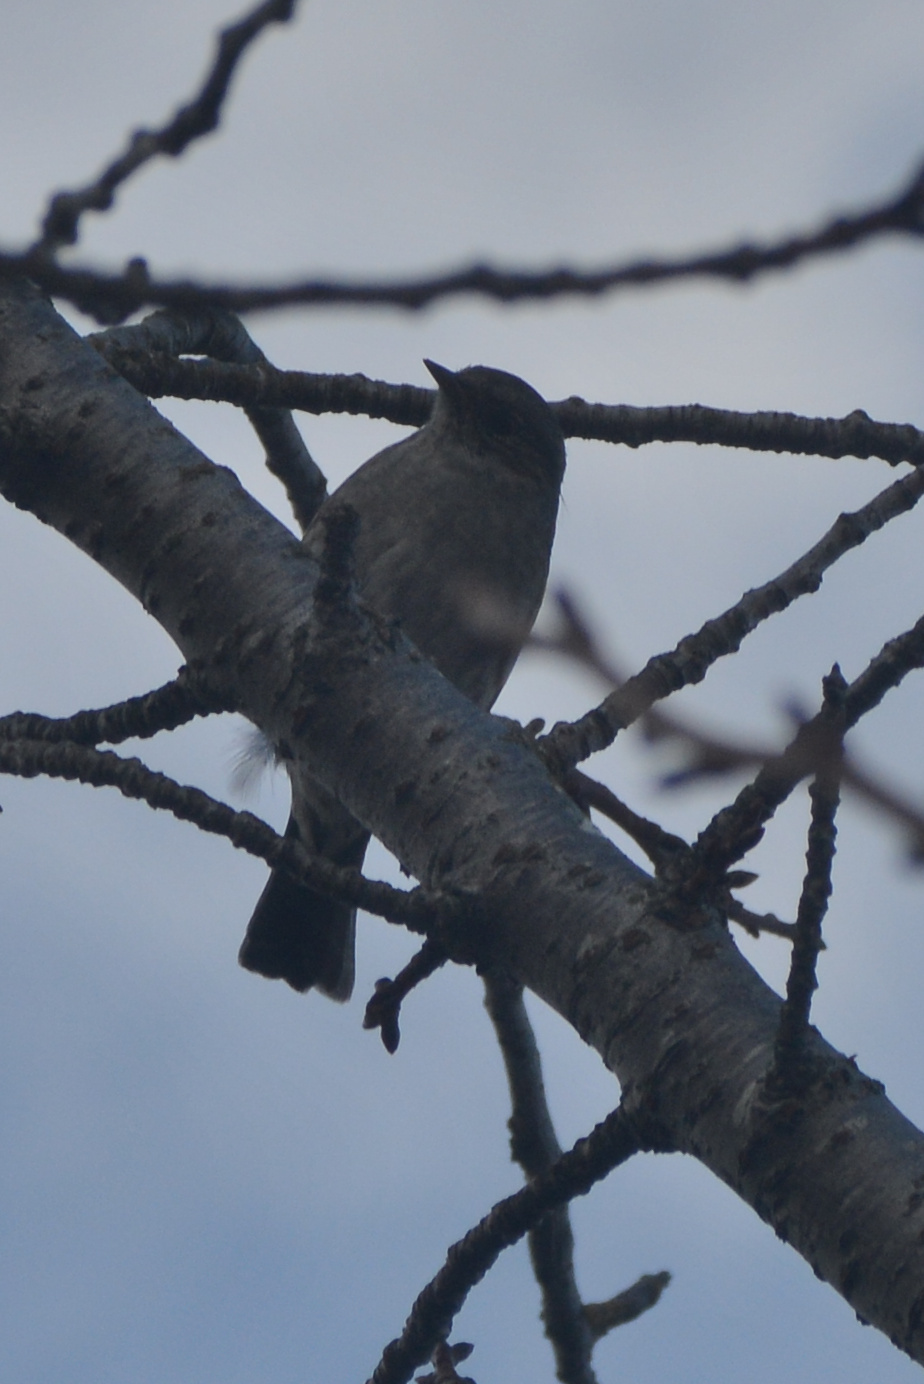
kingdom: Animalia
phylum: Chordata
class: Aves
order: Passeriformes
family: Prunellidae
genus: Prunella
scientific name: Prunella modularis
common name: Dunnock
